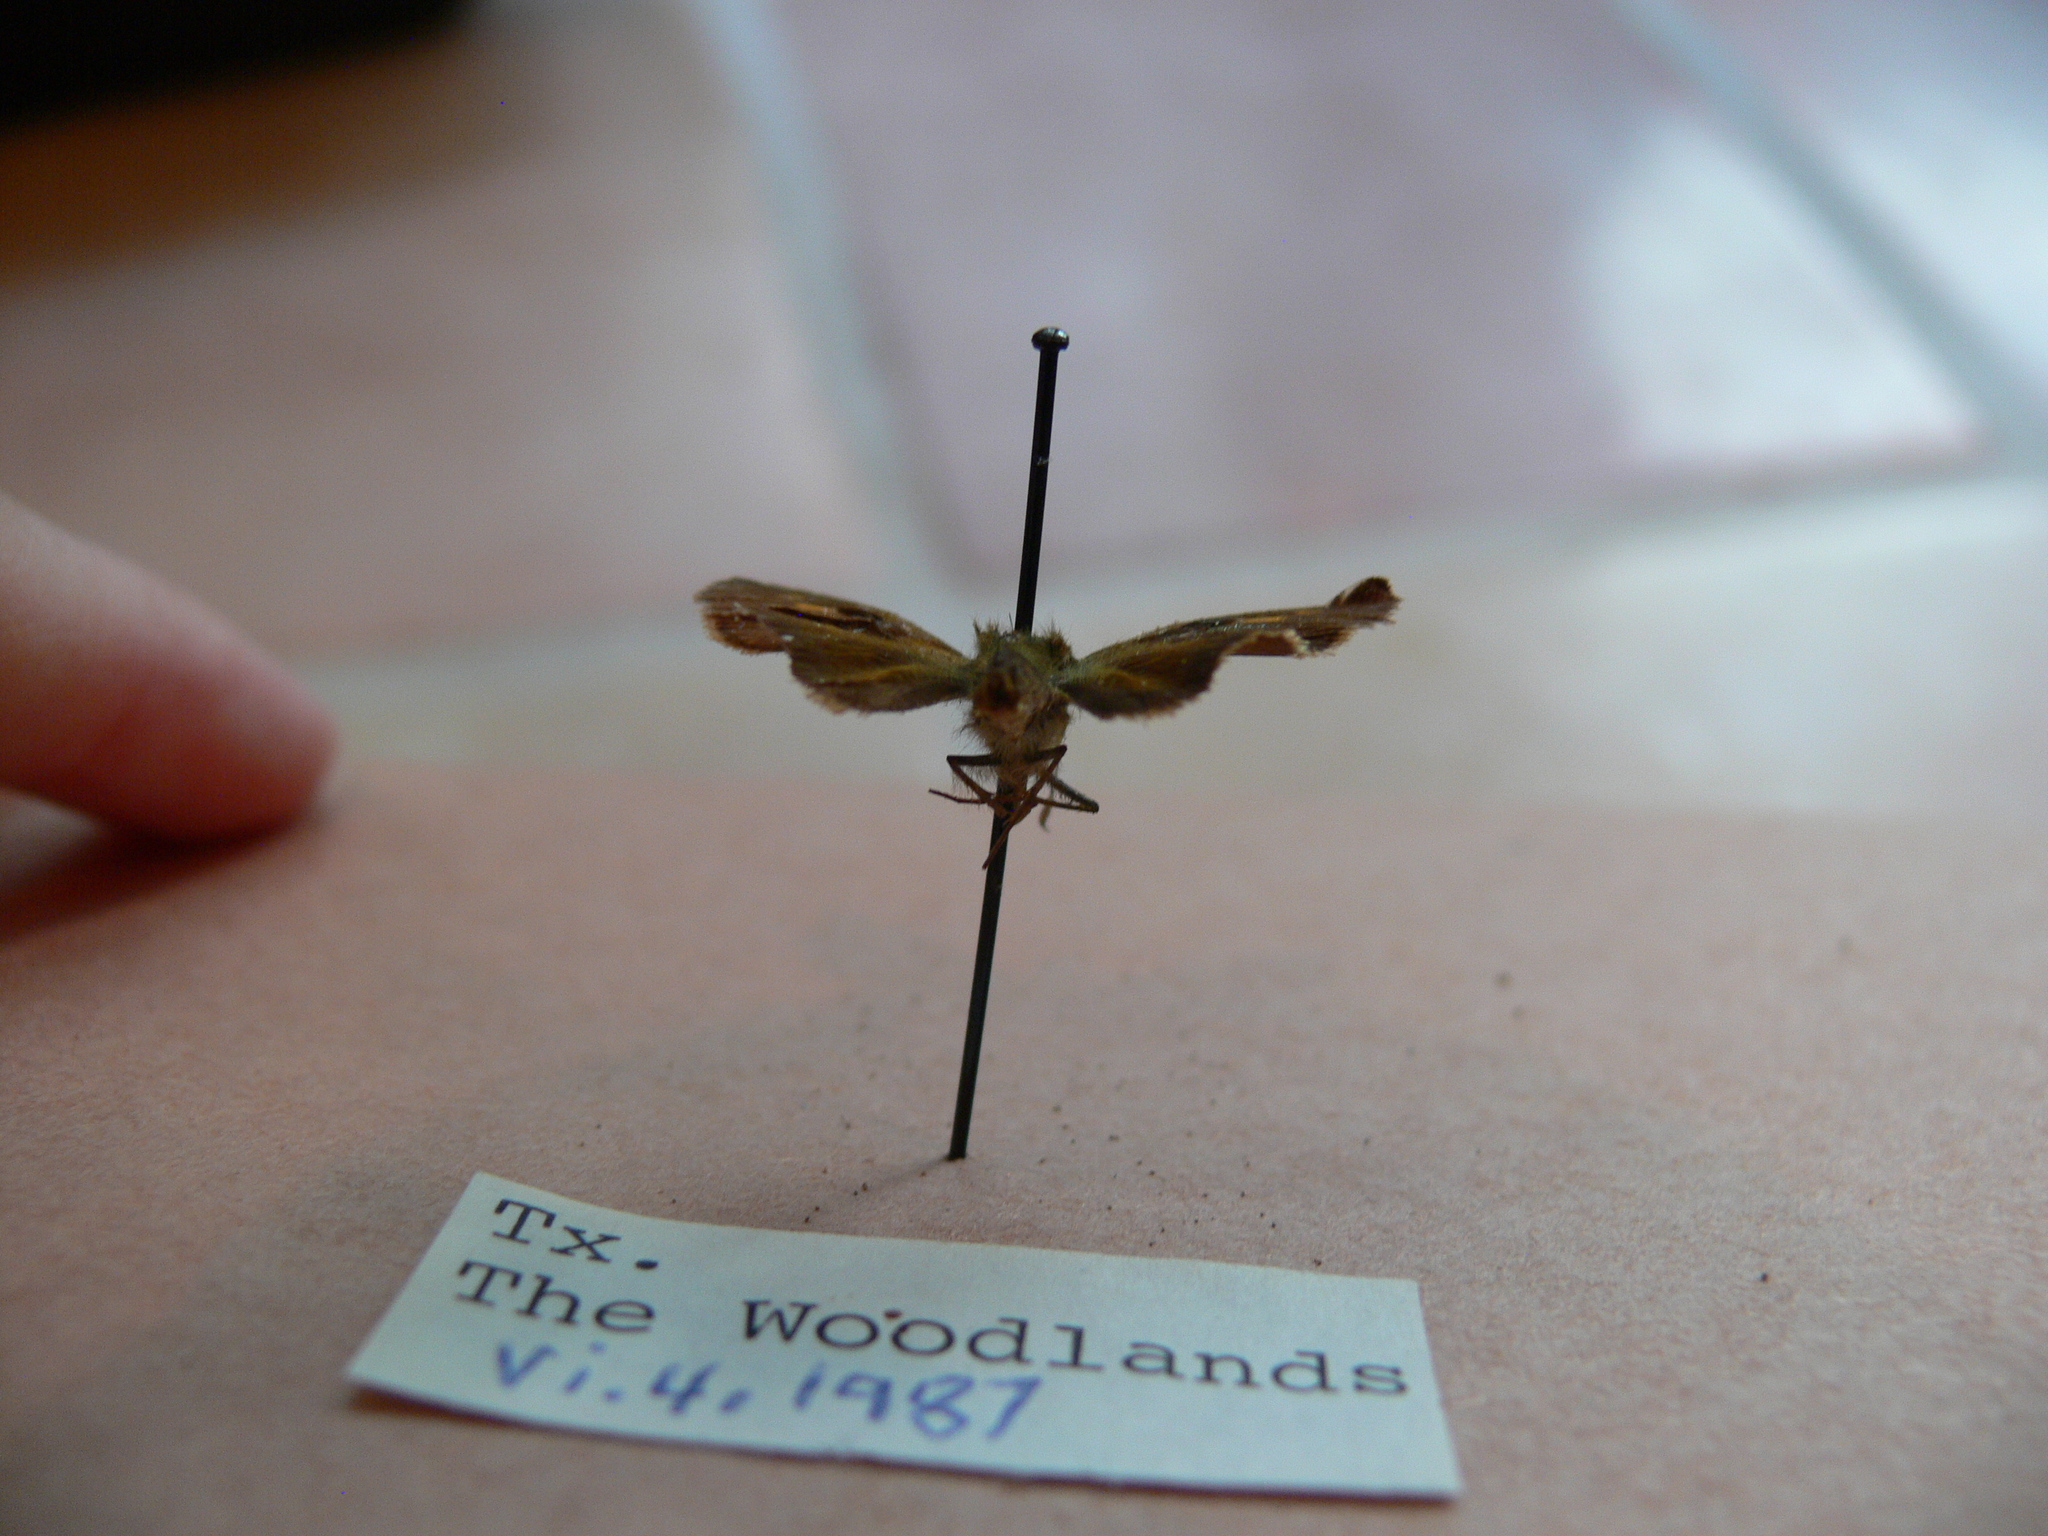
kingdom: Animalia
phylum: Arthropoda
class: Insecta
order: Lepidoptera
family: Hesperiidae
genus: Polites
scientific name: Polites otho
